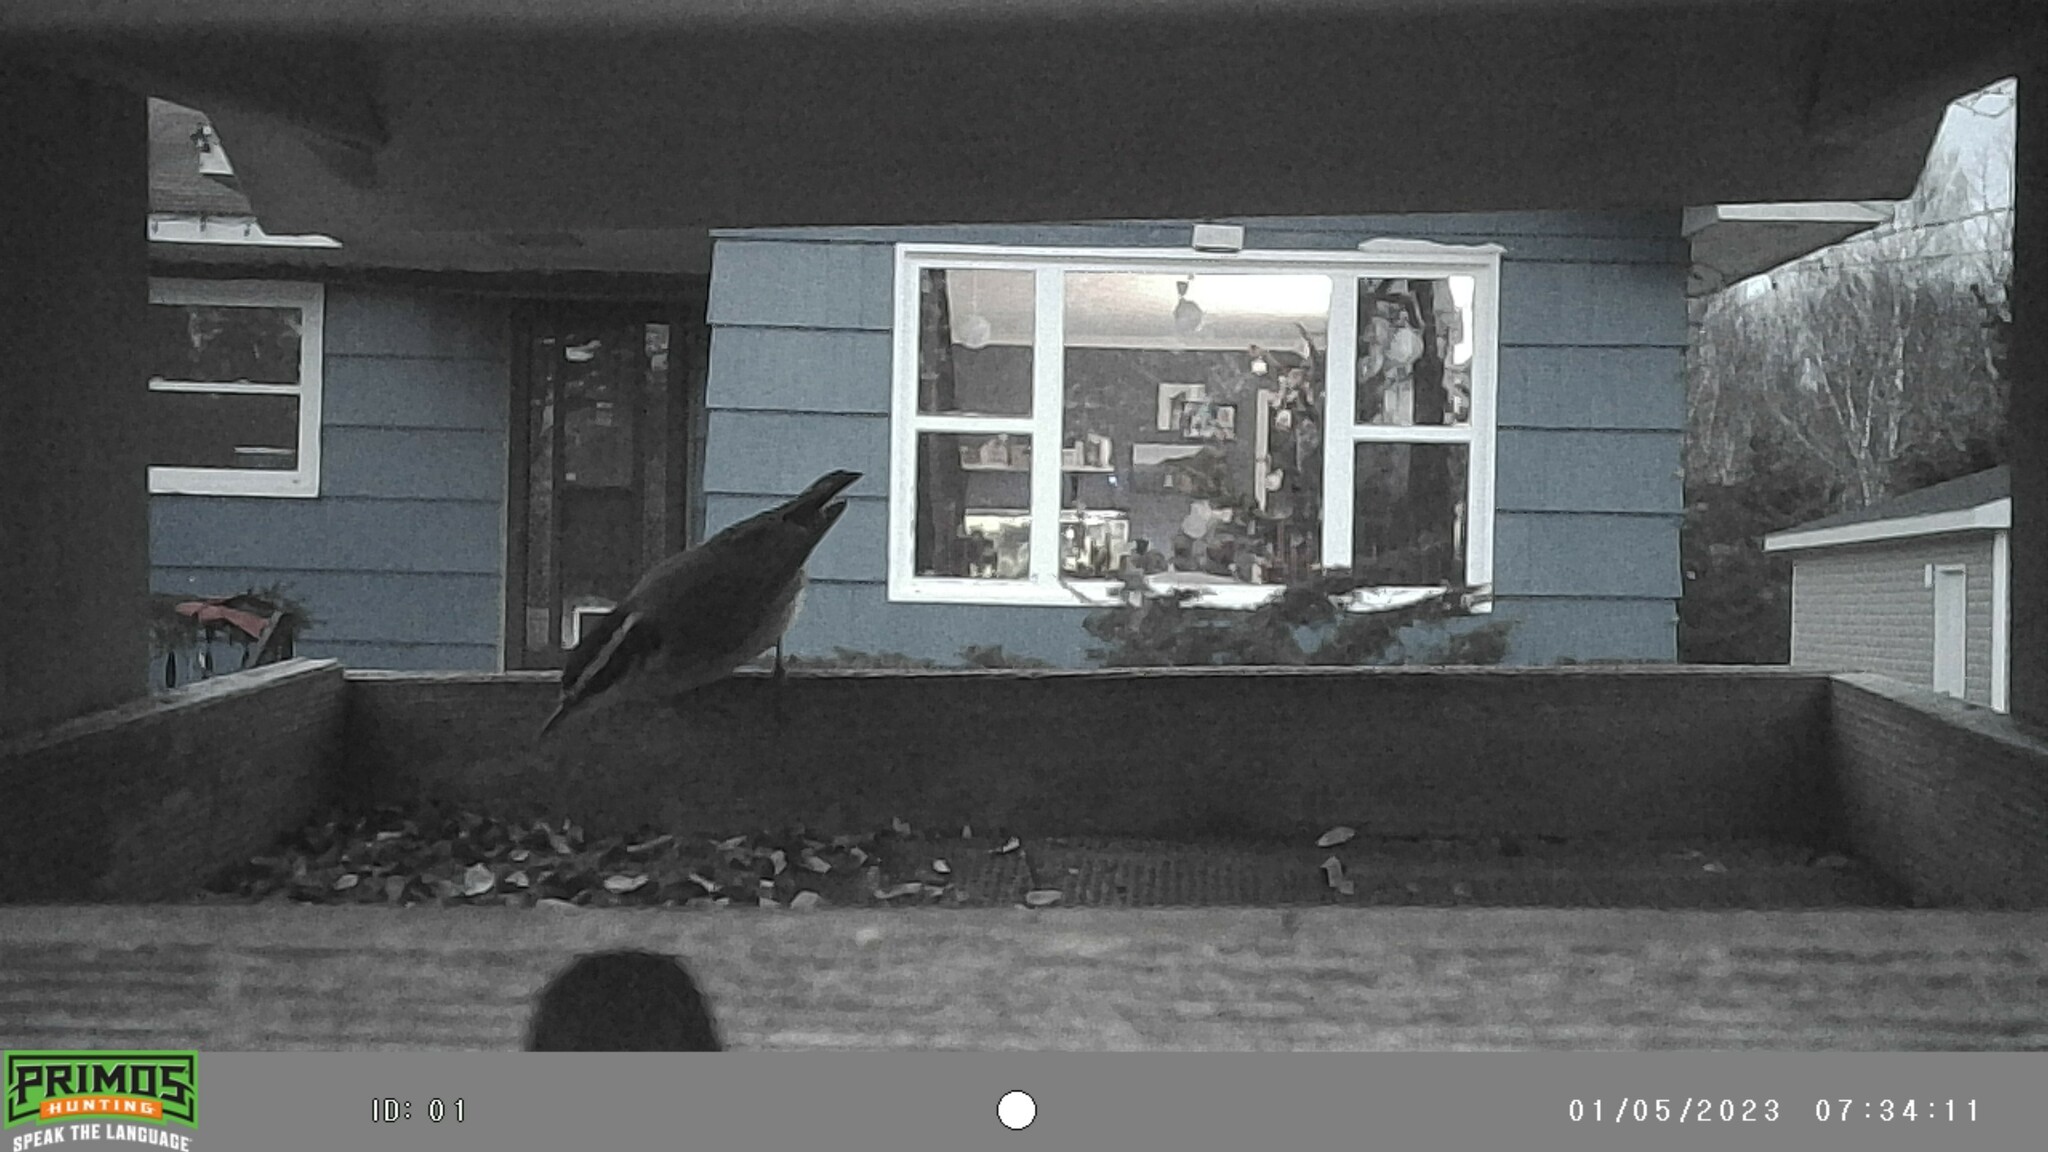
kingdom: Animalia
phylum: Chordata
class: Aves
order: Passeriformes
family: Sittidae
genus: Sitta
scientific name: Sitta canadensis
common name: Red-breasted nuthatch
